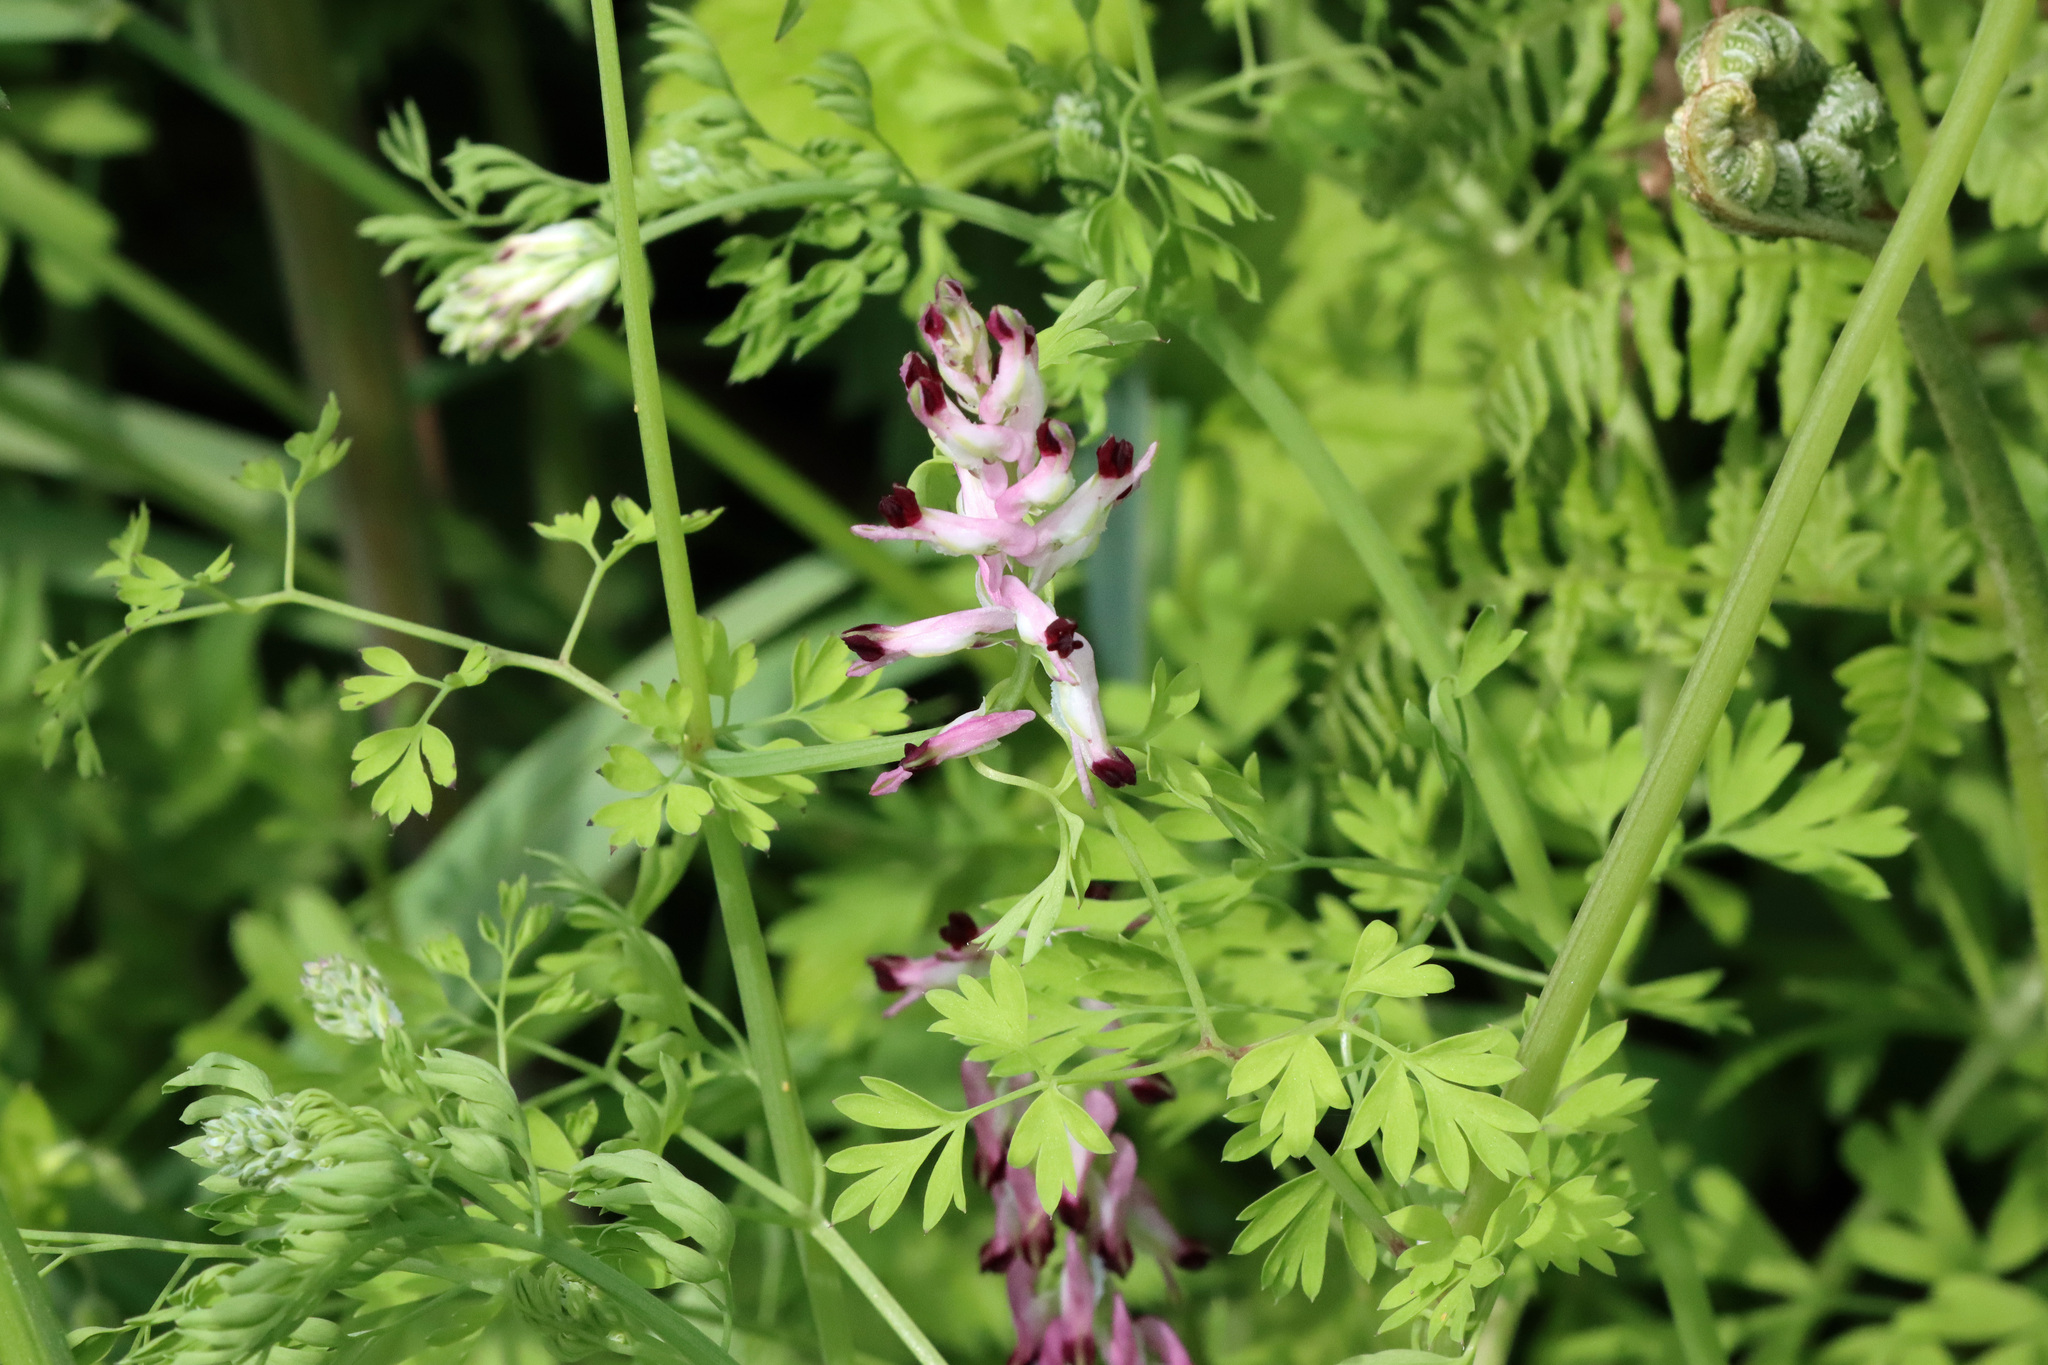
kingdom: Plantae
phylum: Tracheophyta
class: Magnoliopsida
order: Ranunculales
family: Papaveraceae
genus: Fumaria
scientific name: Fumaria officinalis
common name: Common fumitory
